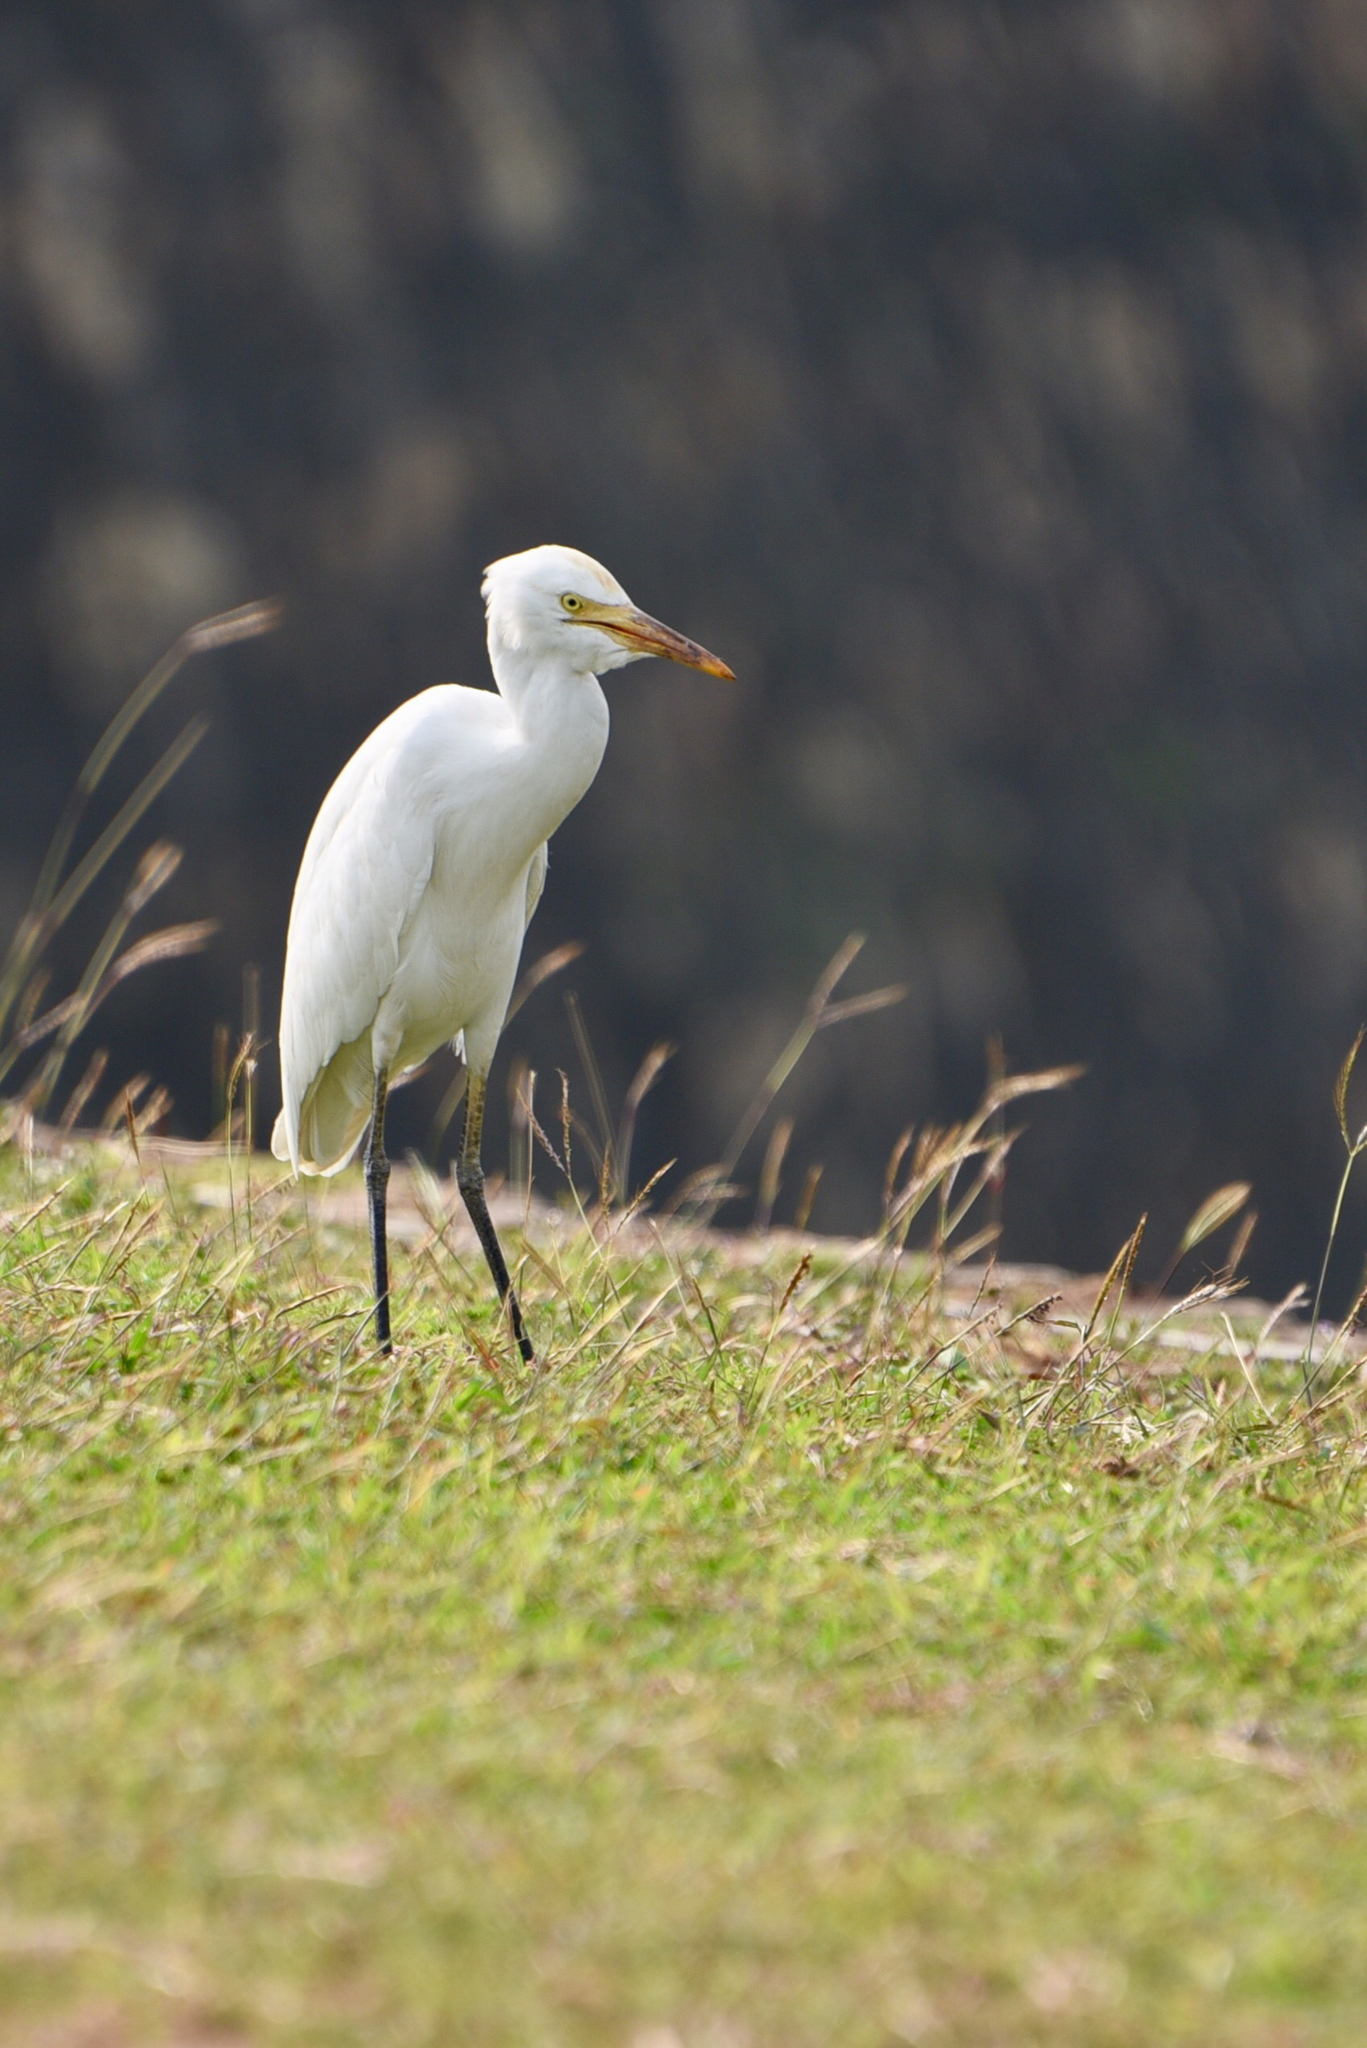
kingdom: Animalia
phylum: Chordata
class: Aves
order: Pelecaniformes
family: Ardeidae
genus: Bubulcus
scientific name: Bubulcus coromandus
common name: Eastern cattle egret
